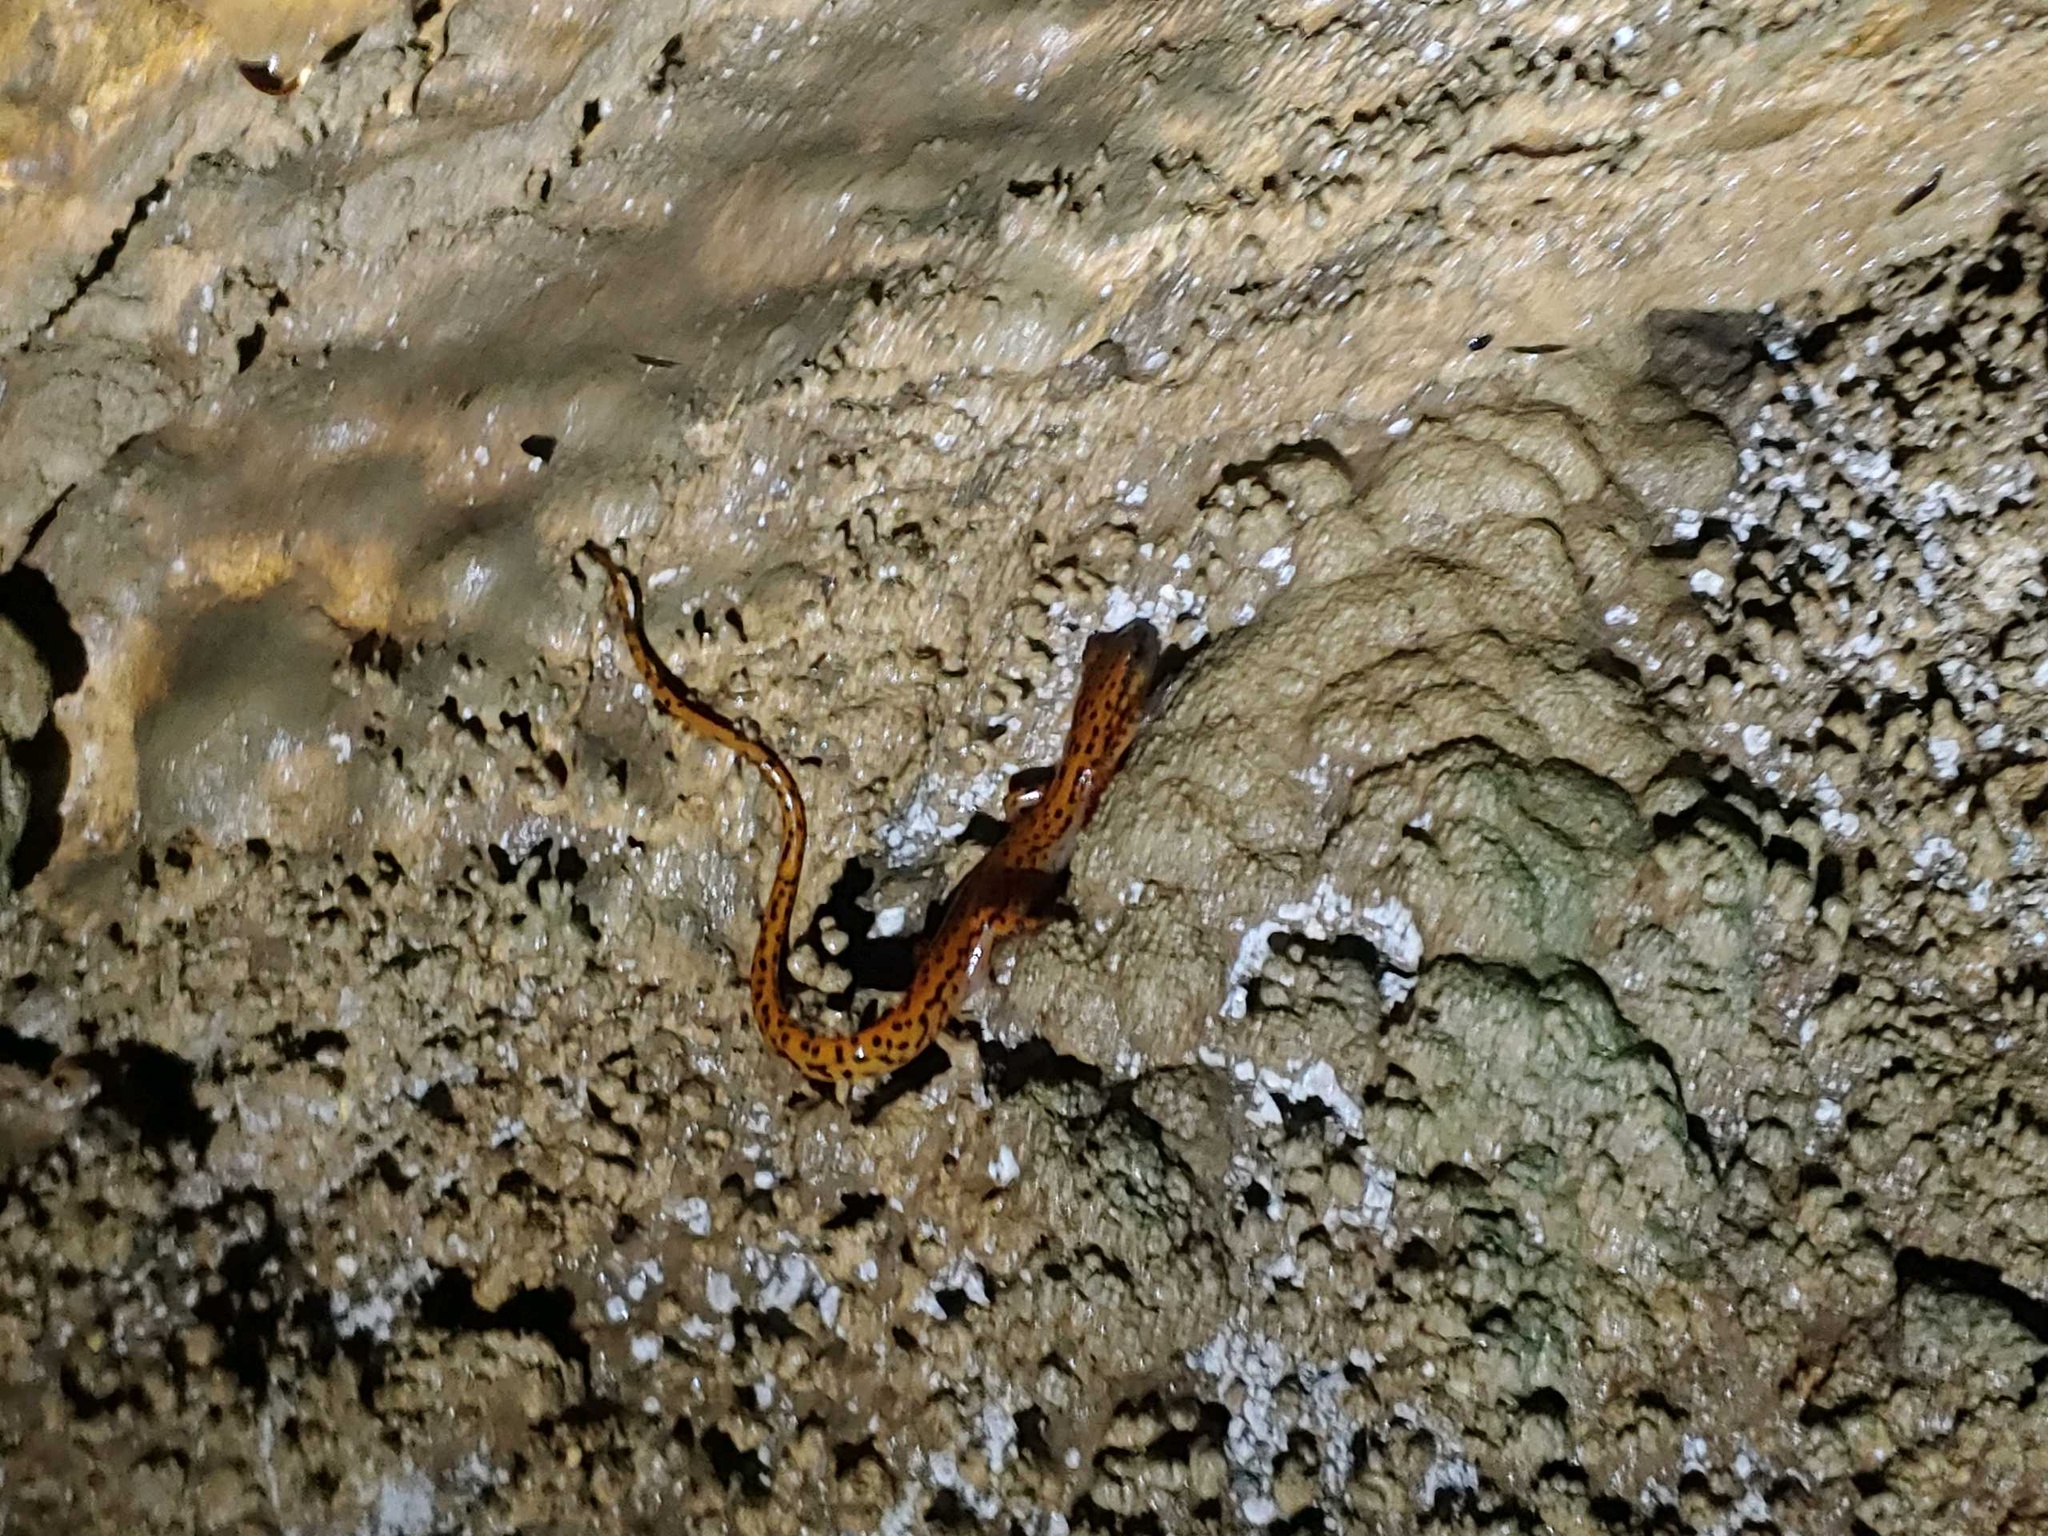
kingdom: Animalia
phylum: Chordata
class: Amphibia
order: Caudata
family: Plethodontidae
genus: Eurycea
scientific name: Eurycea lucifuga
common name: Cave salamander
